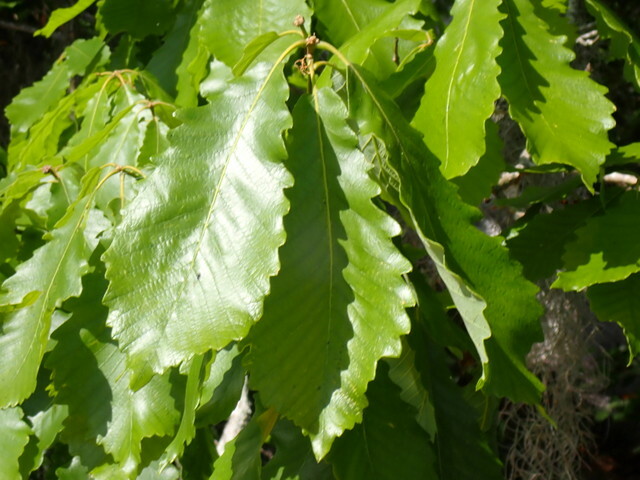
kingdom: Plantae
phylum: Tracheophyta
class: Magnoliopsida
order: Fagales
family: Fagaceae
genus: Quercus
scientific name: Quercus michauxii
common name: Swamp chestnut oak
